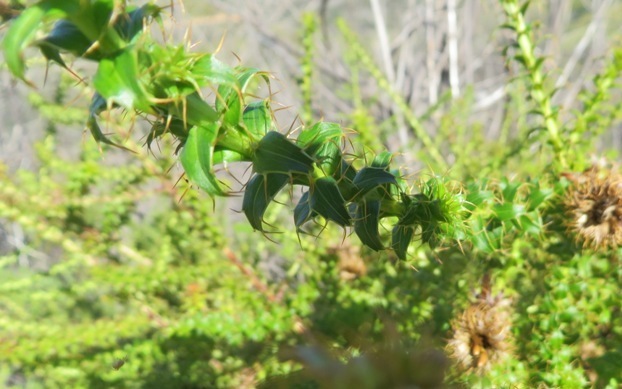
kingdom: Plantae
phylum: Tracheophyta
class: Magnoliopsida
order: Asterales
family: Asteraceae
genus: Cullumia
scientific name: Cullumia setosa
